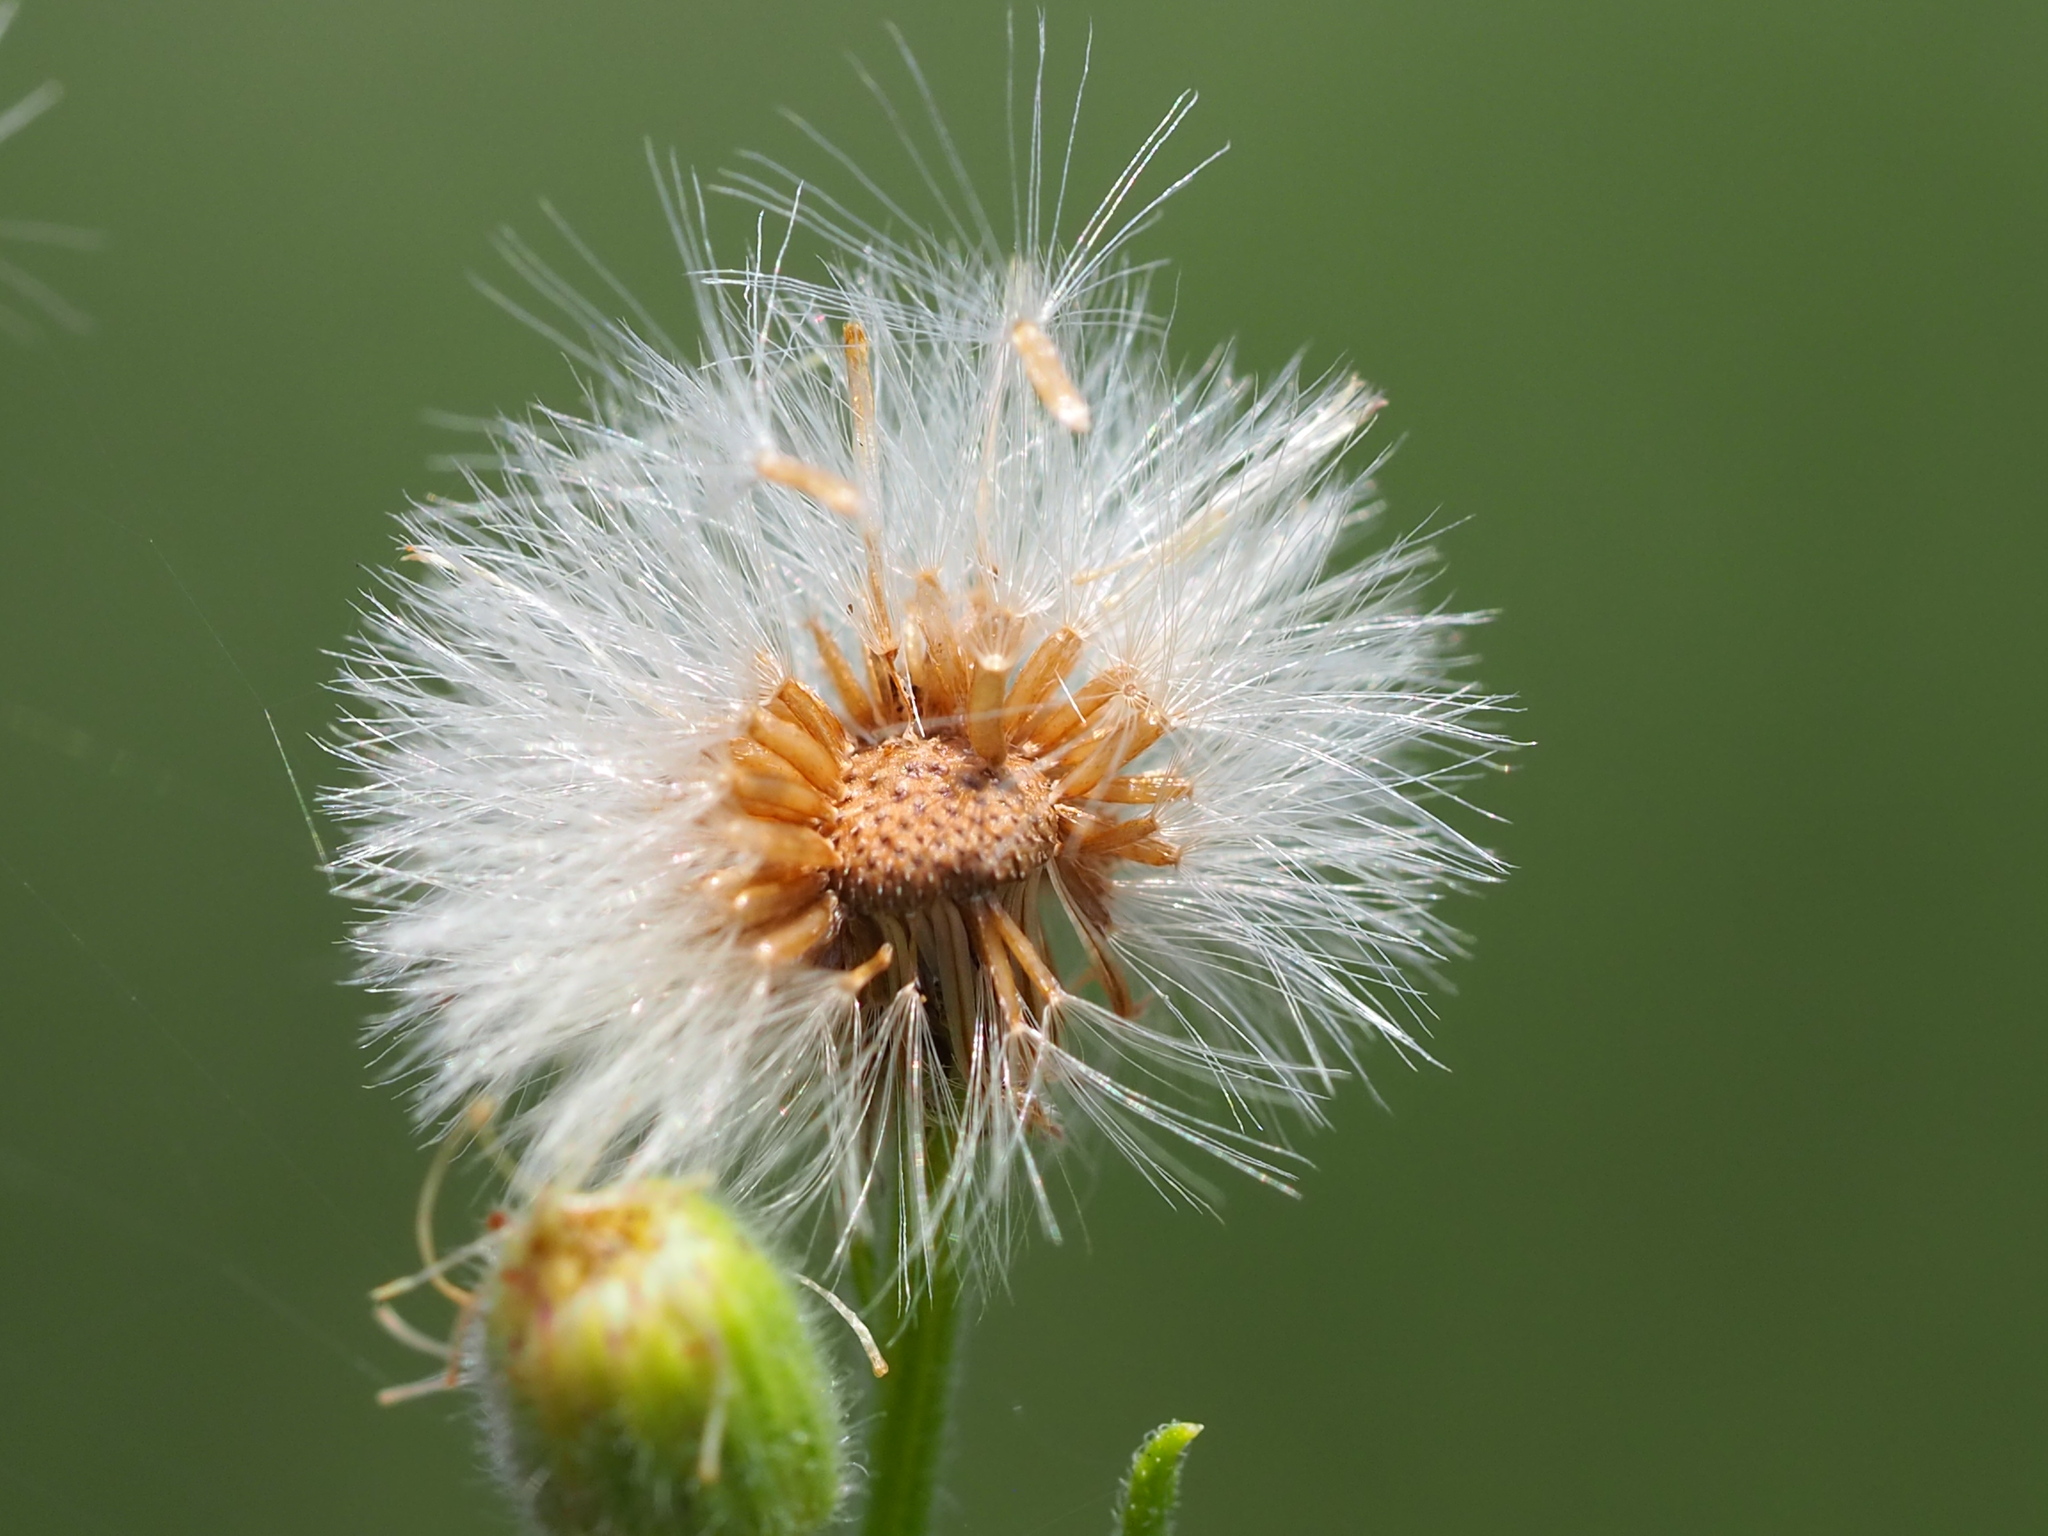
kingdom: Plantae
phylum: Tracheophyta
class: Magnoliopsida
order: Asterales
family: Asteraceae
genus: Erigeron
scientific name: Erigeron bonariensis
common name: Argentine fleabane
